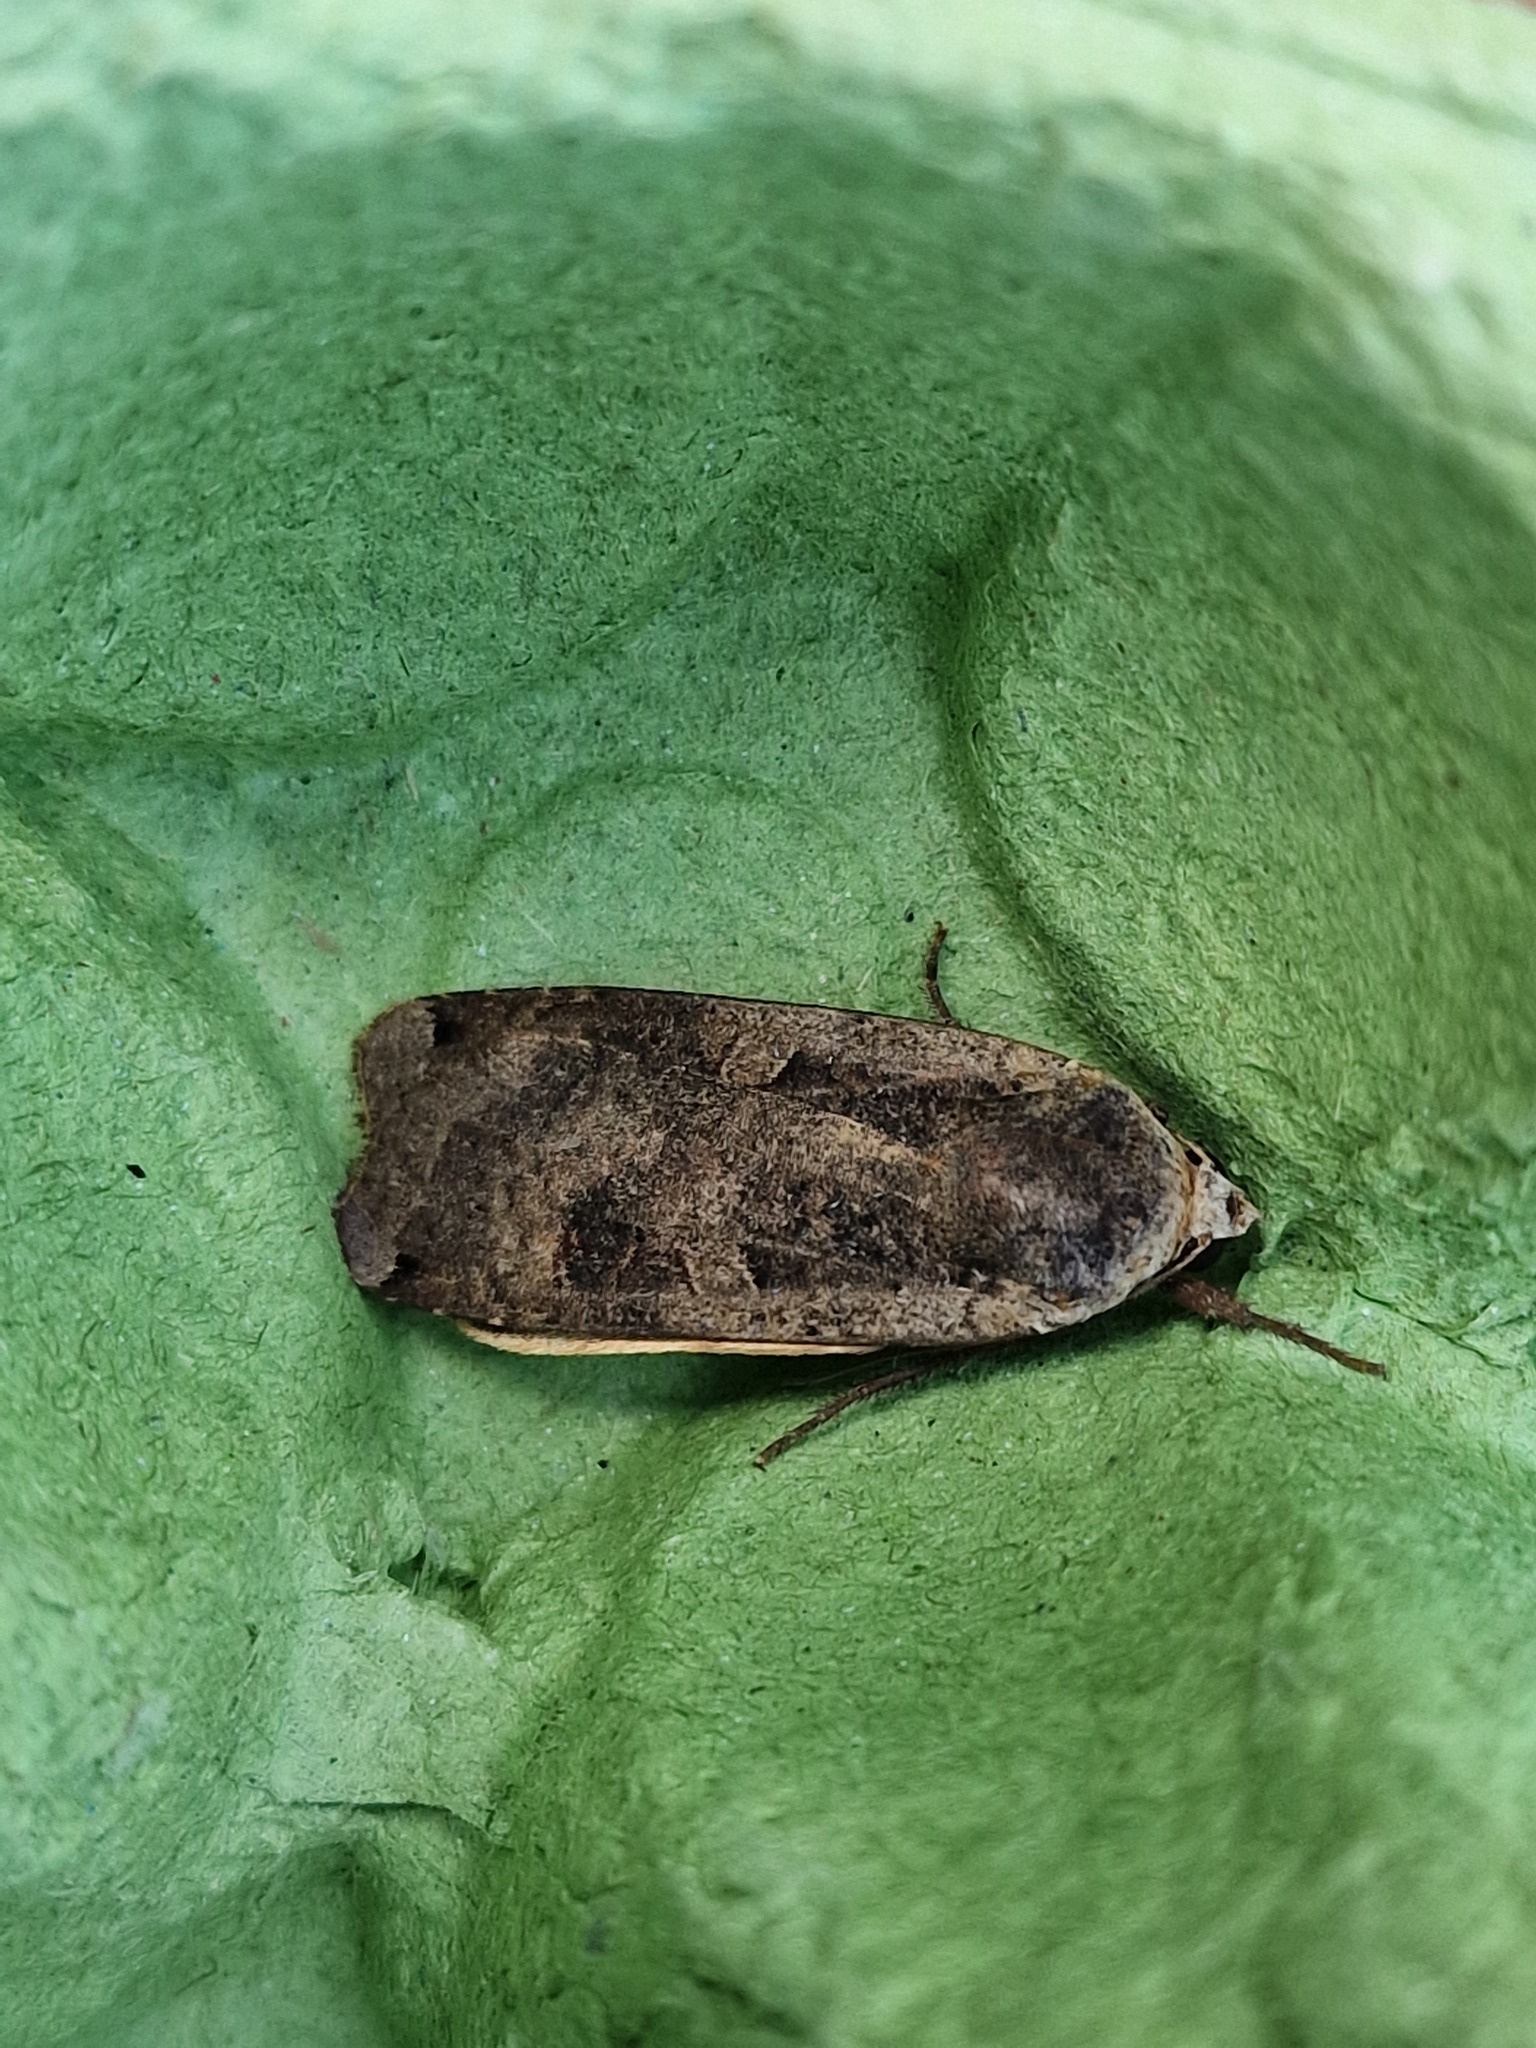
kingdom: Animalia
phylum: Arthropoda
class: Insecta
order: Lepidoptera
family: Noctuidae
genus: Noctua
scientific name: Noctua pronuba
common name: Large yellow underwing
